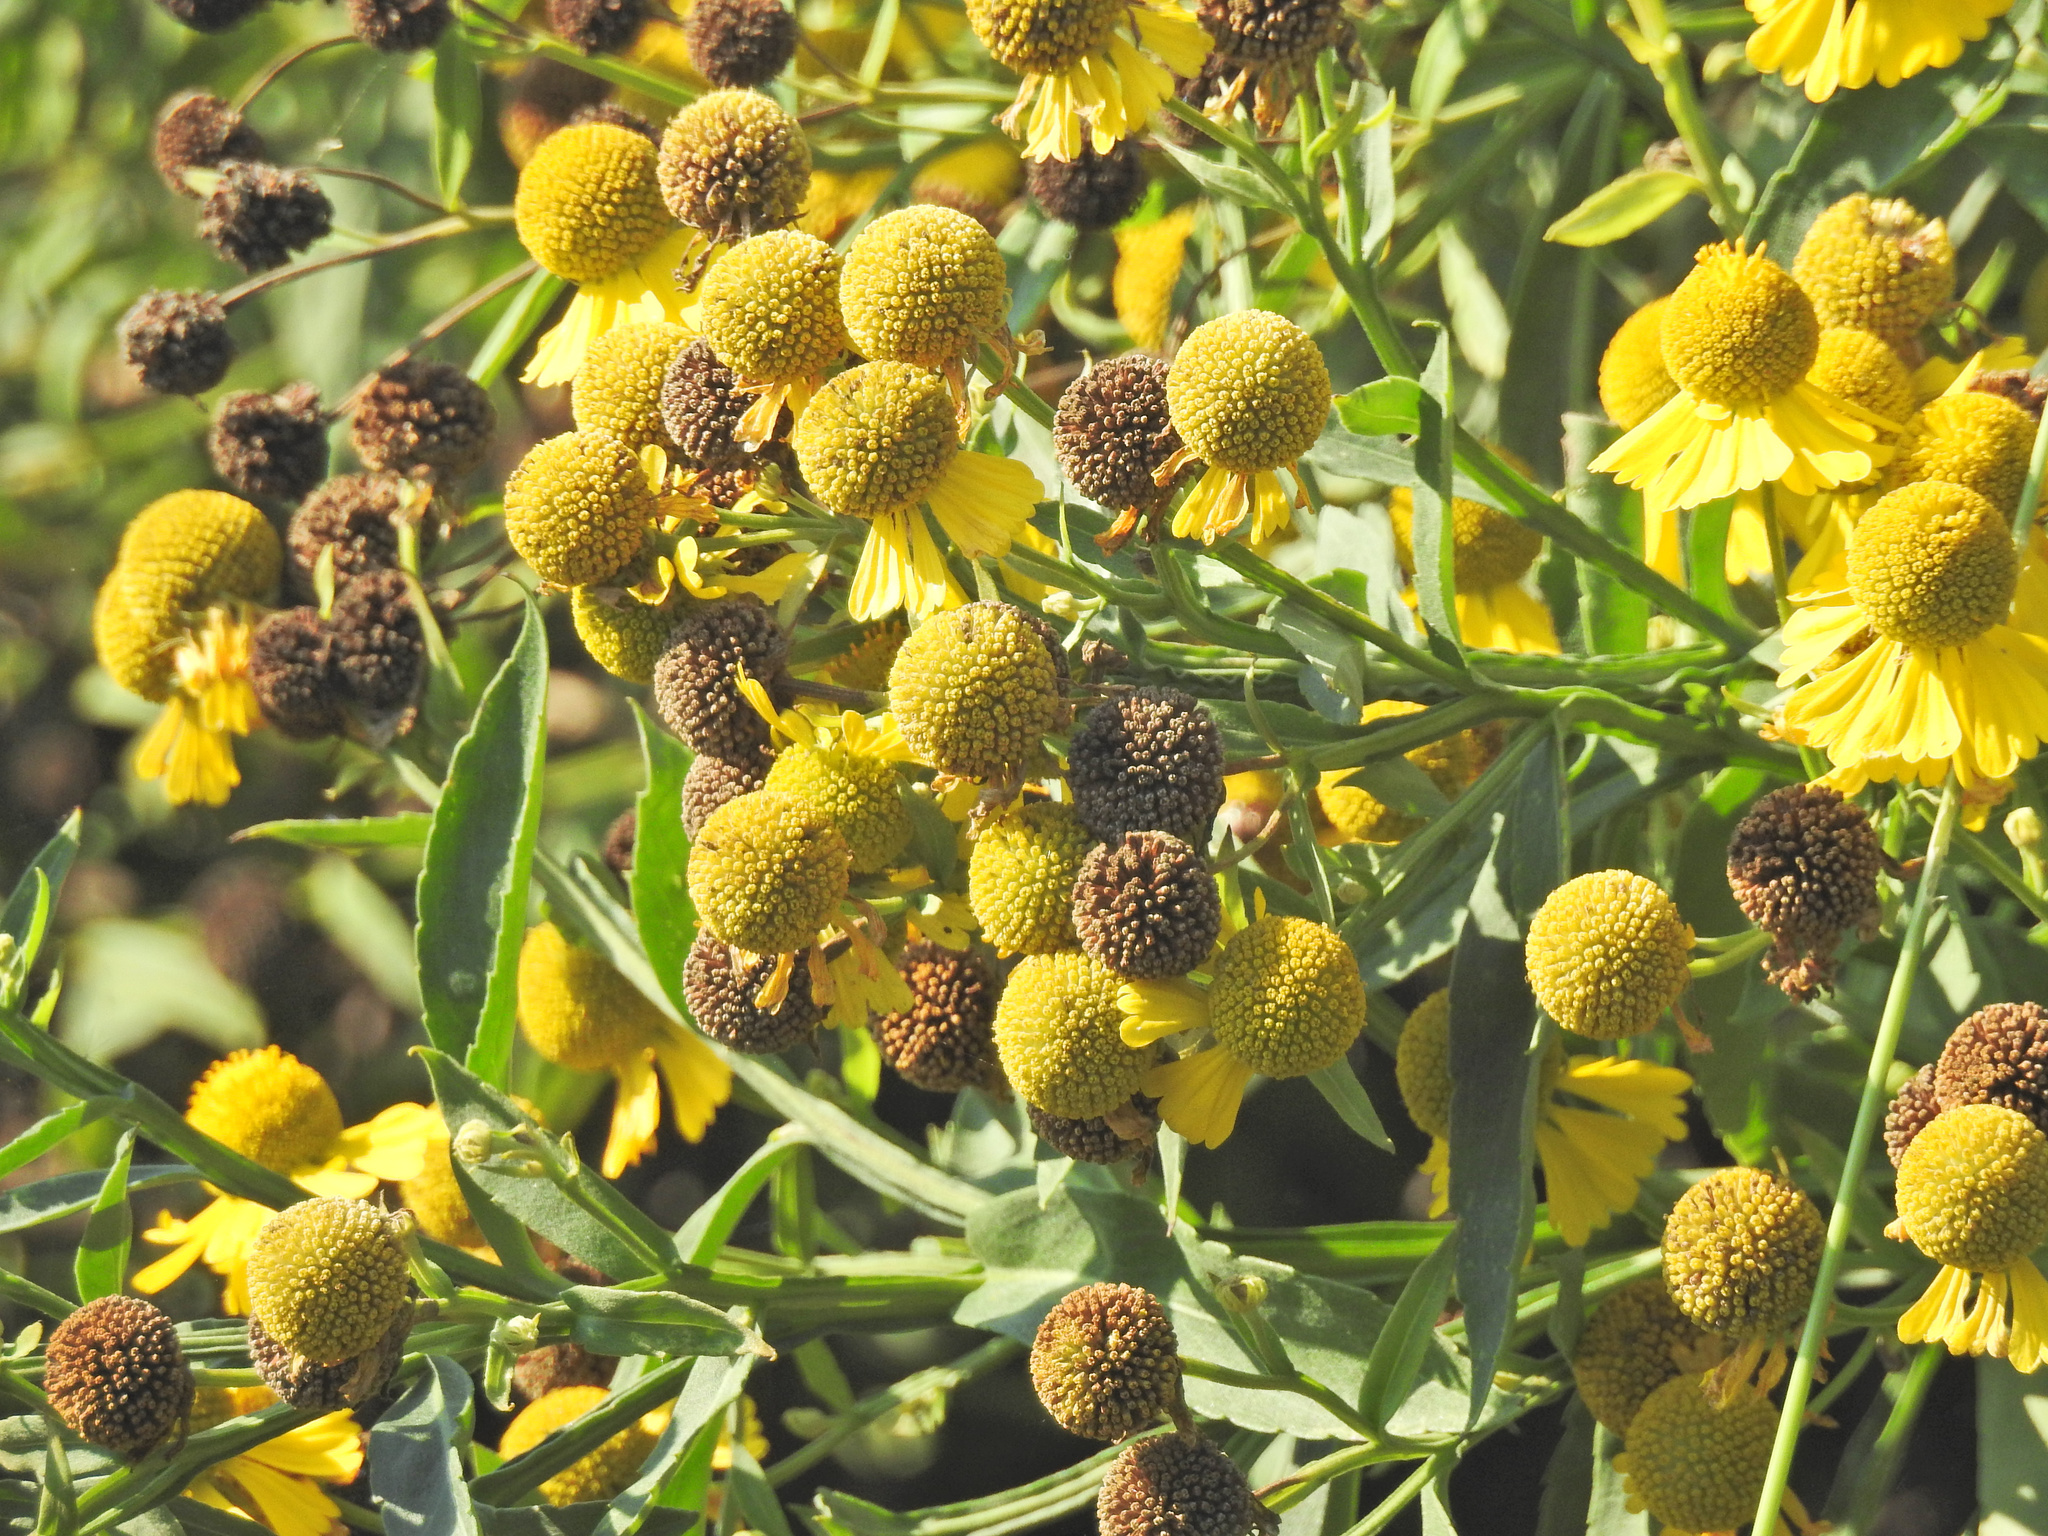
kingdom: Plantae
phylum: Tracheophyta
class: Magnoliopsida
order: Asterales
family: Asteraceae
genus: Helenium
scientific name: Helenium autumnale
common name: Sneezeweed
